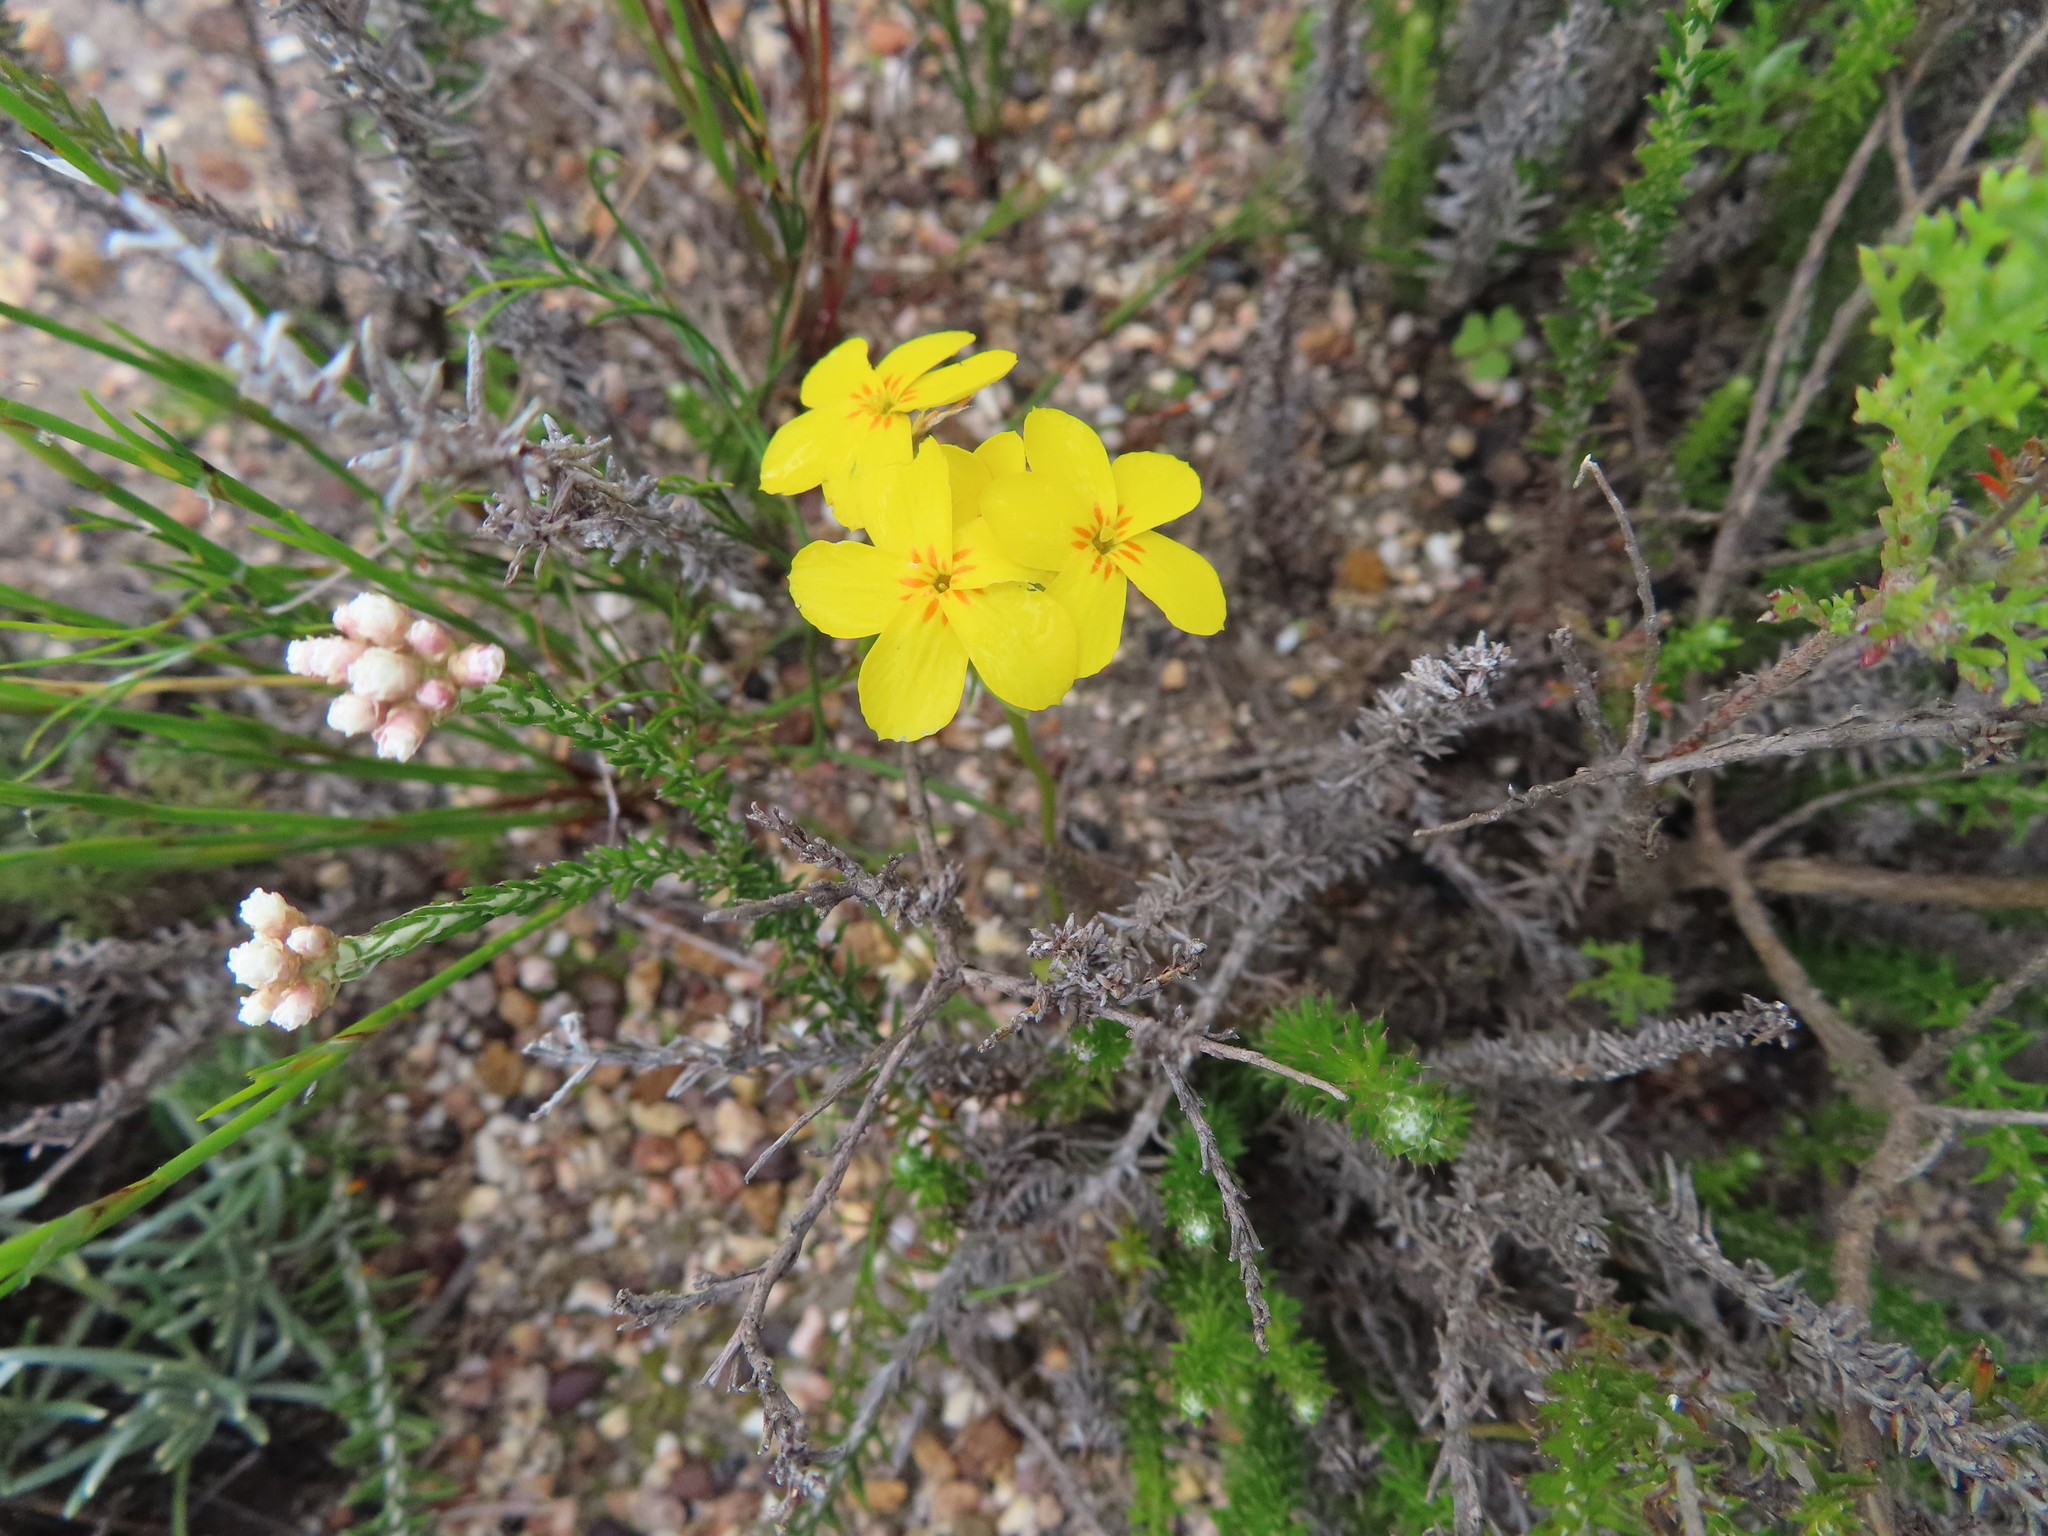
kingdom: Plantae
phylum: Tracheophyta
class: Magnoliopsida
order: Gentianales
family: Gentianaceae
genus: Sebaea
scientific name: Sebaea exacoides
